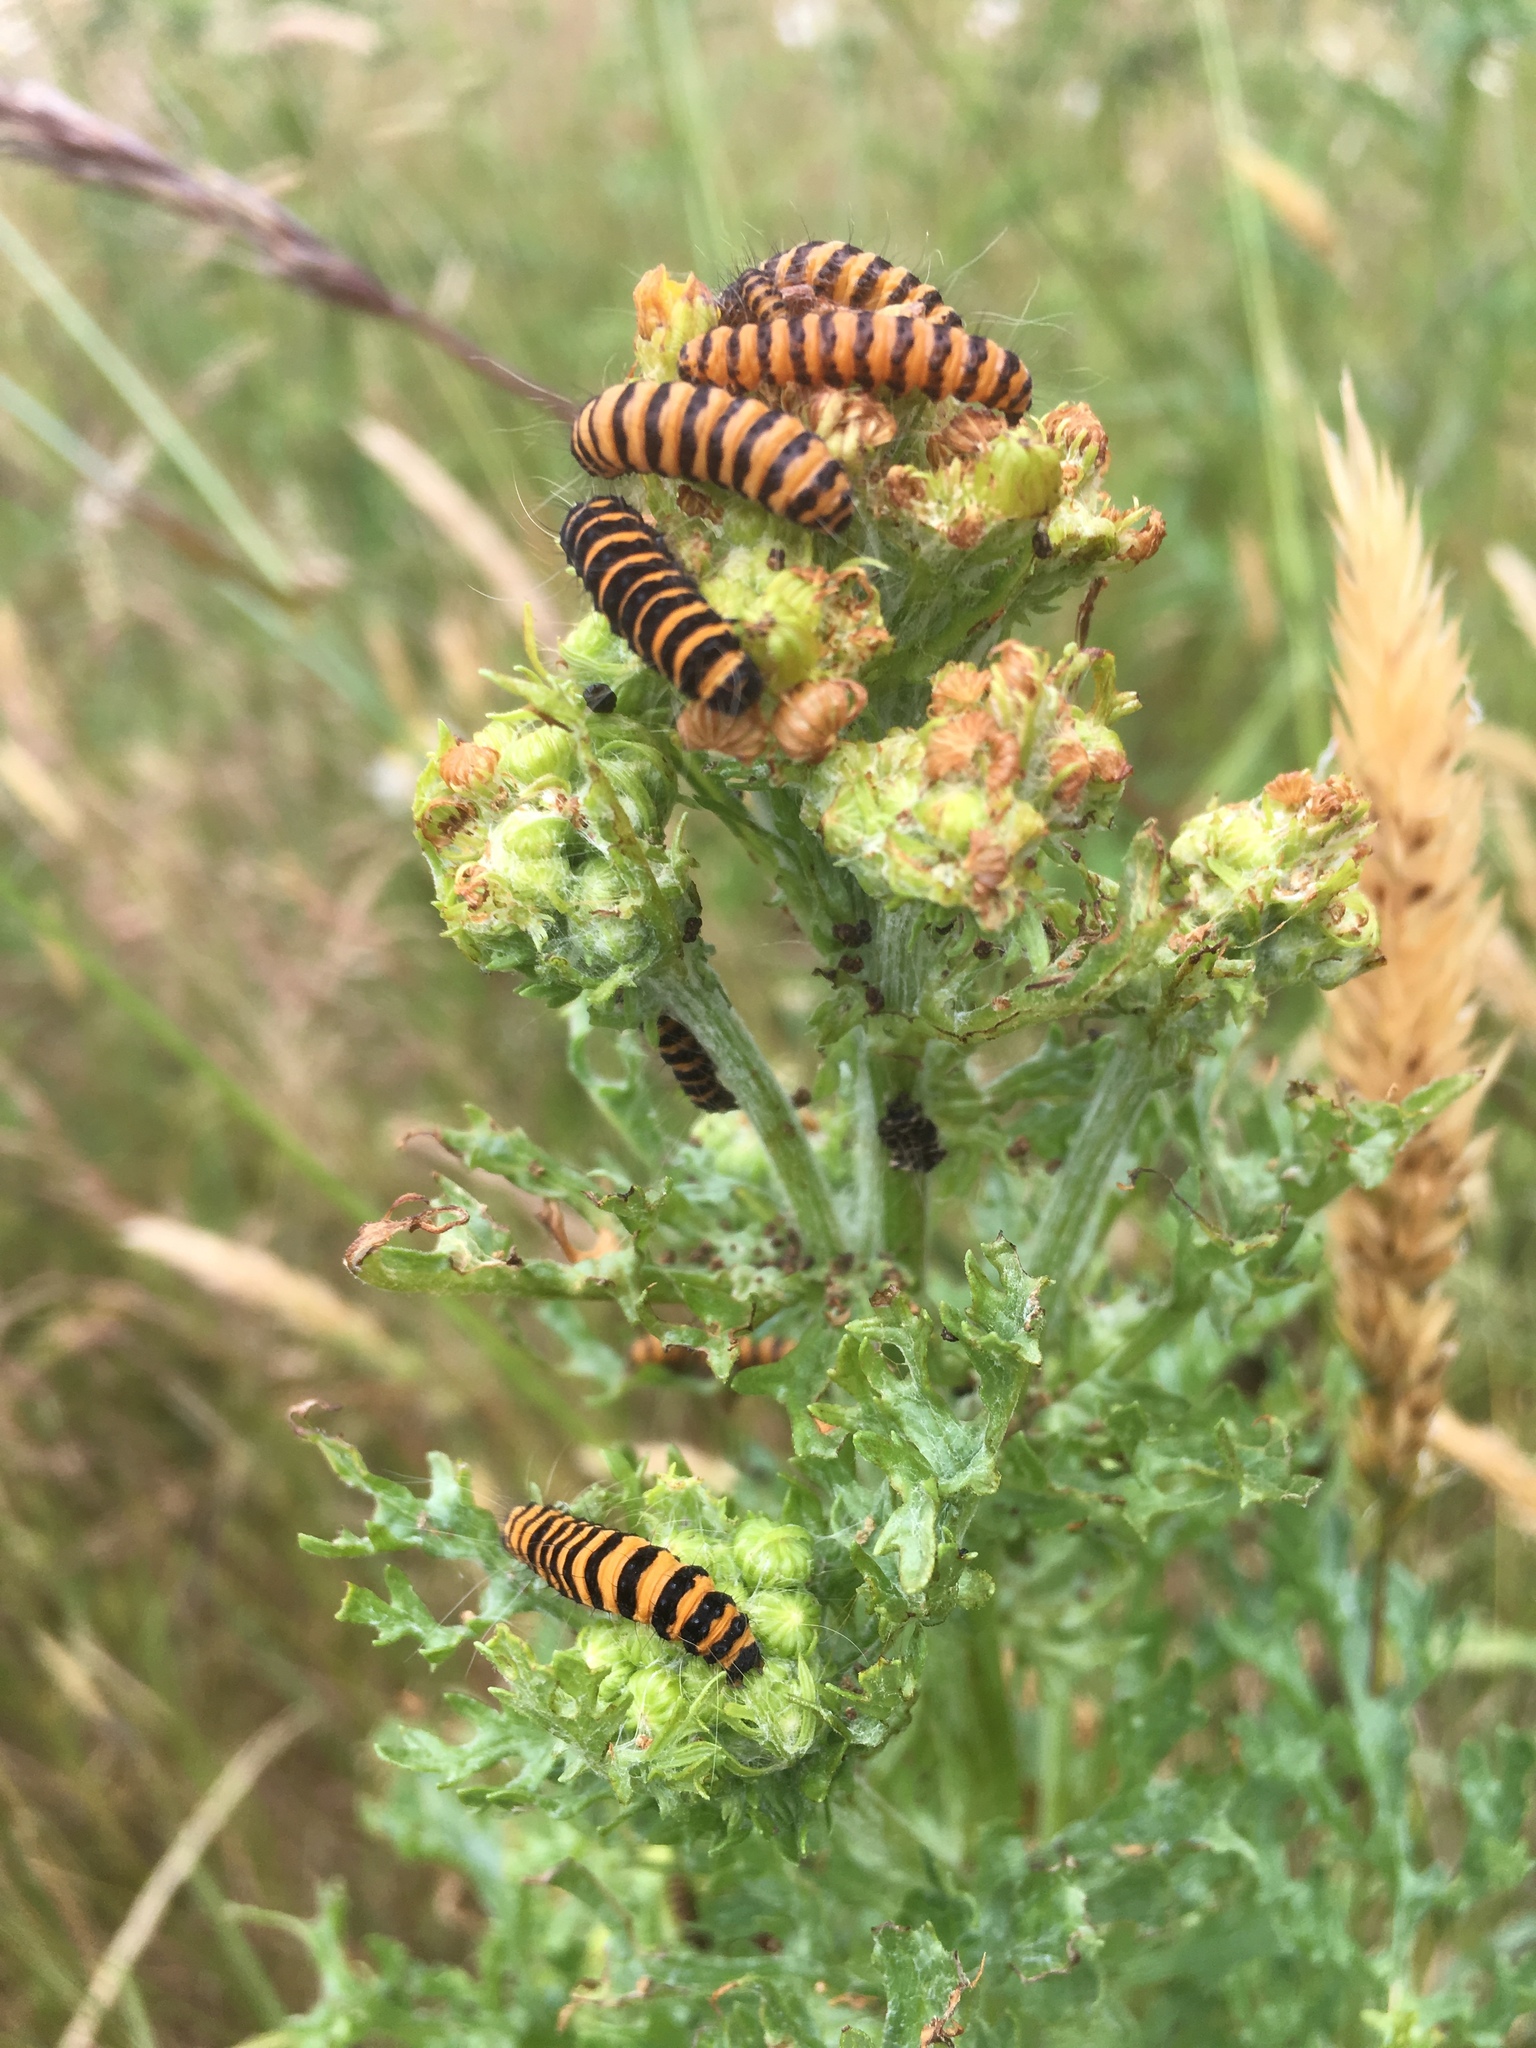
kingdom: Animalia
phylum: Arthropoda
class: Insecta
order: Lepidoptera
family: Erebidae
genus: Tyria
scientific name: Tyria jacobaeae
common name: Cinnabar
